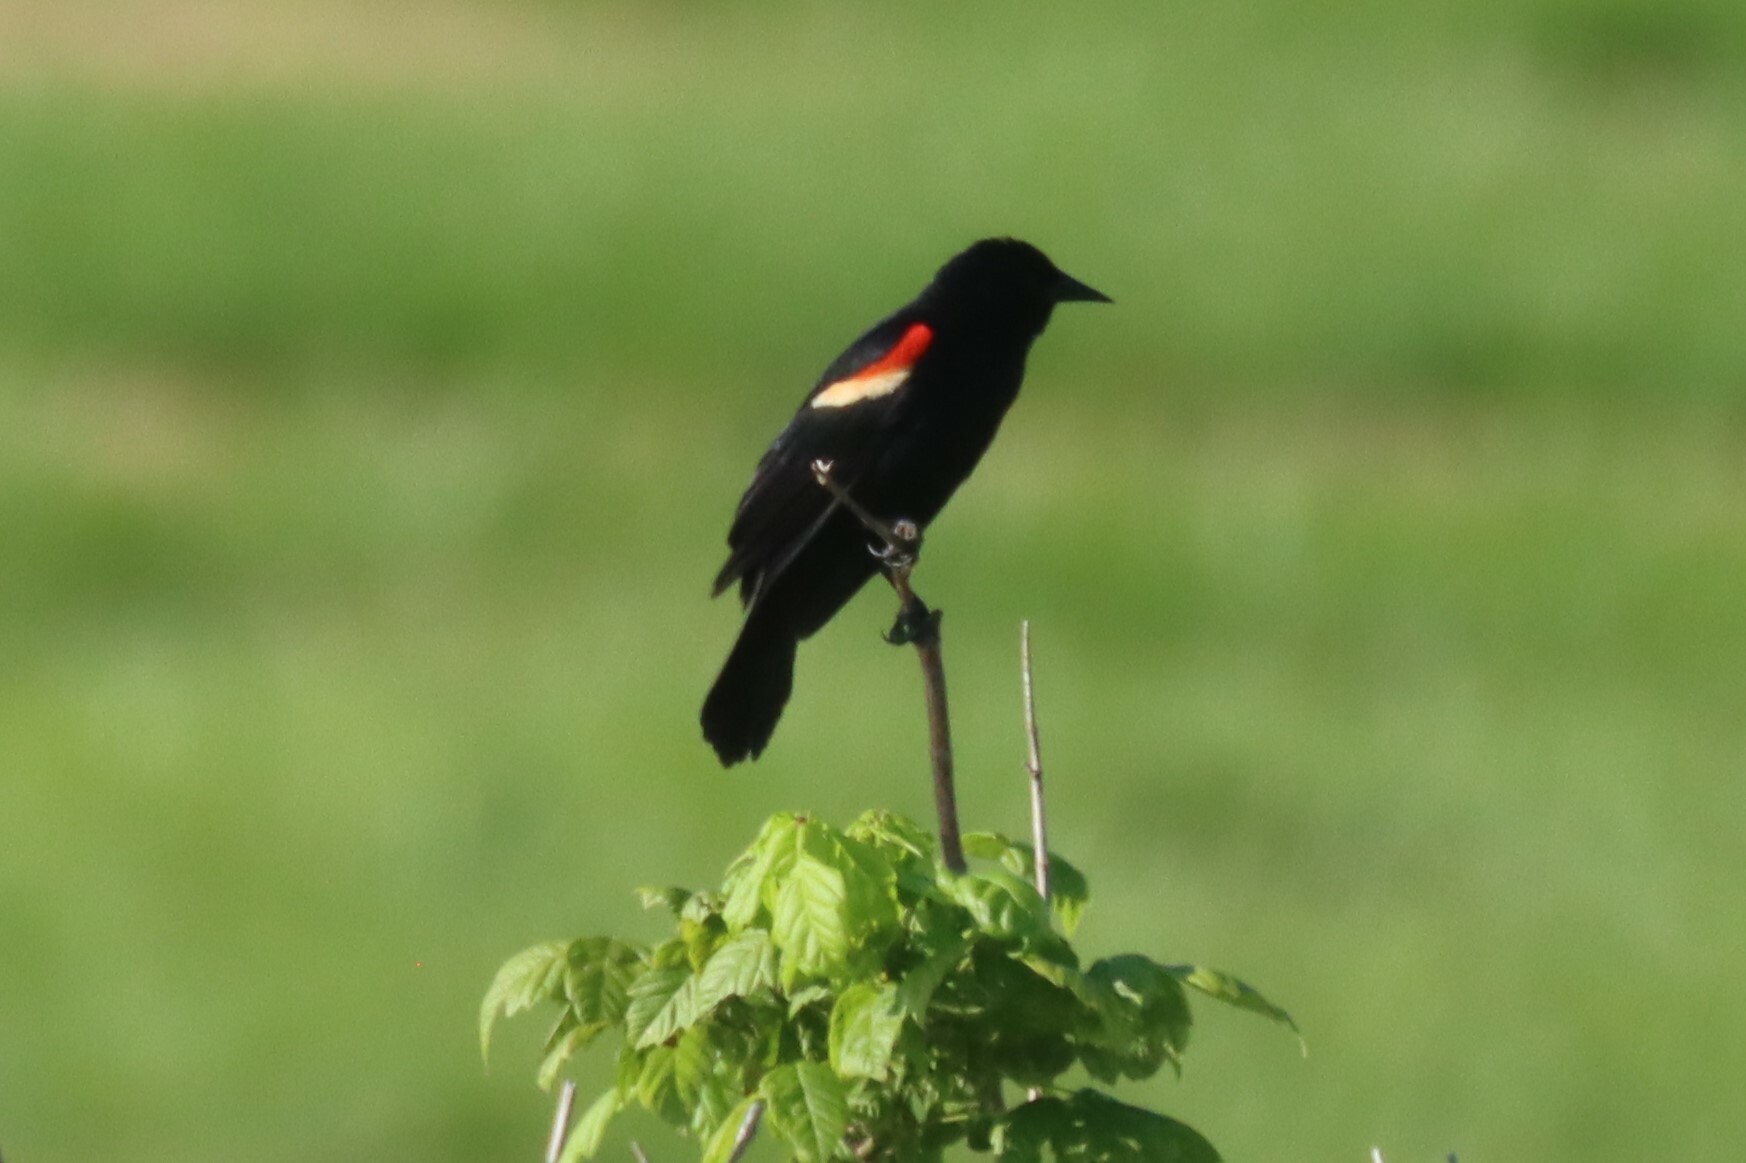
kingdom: Animalia
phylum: Chordata
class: Aves
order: Passeriformes
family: Icteridae
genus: Agelaius
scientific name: Agelaius phoeniceus
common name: Red-winged blackbird
